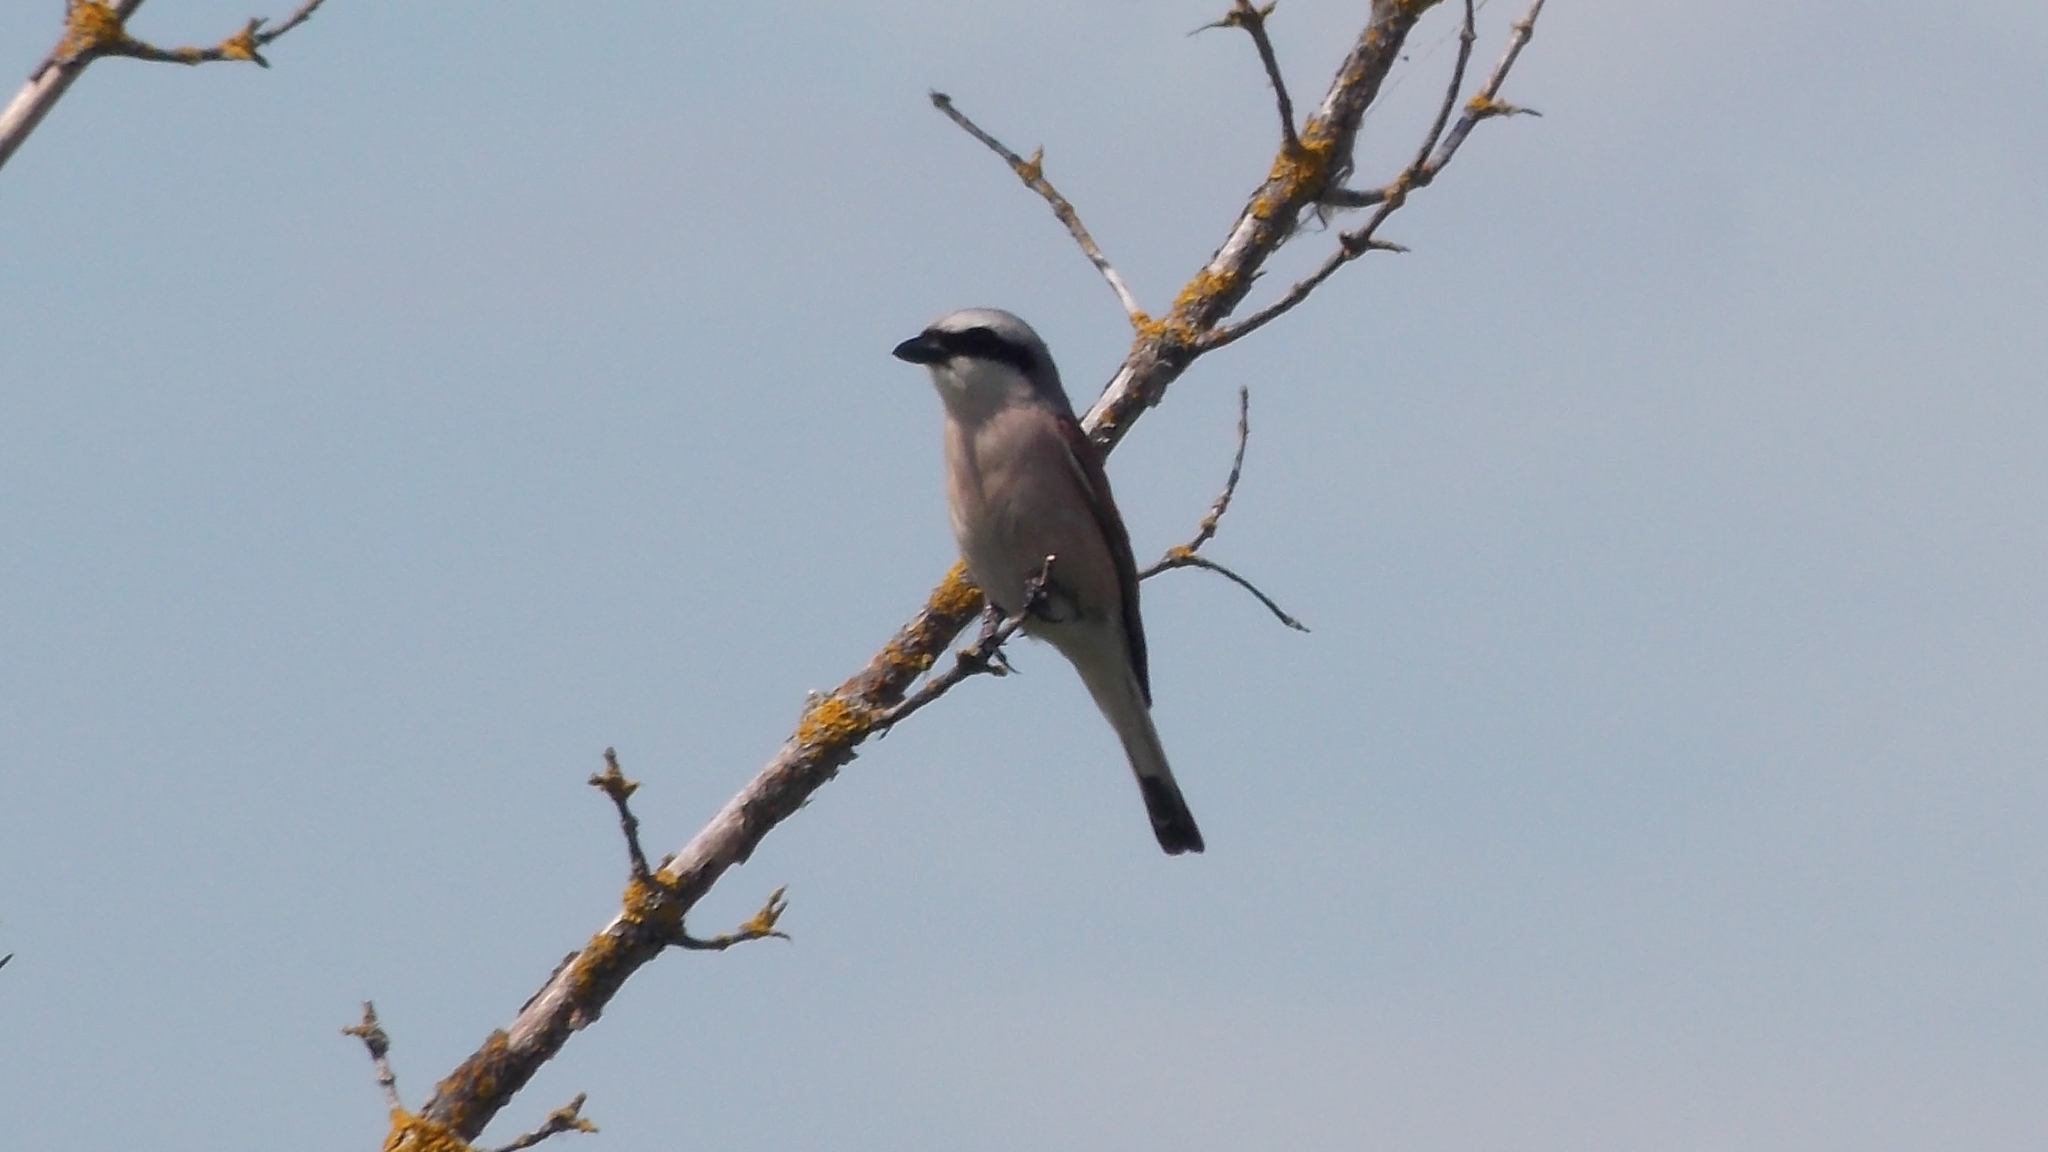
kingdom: Animalia
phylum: Chordata
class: Aves
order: Passeriformes
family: Laniidae
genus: Lanius
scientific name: Lanius collurio
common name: Red-backed shrike
